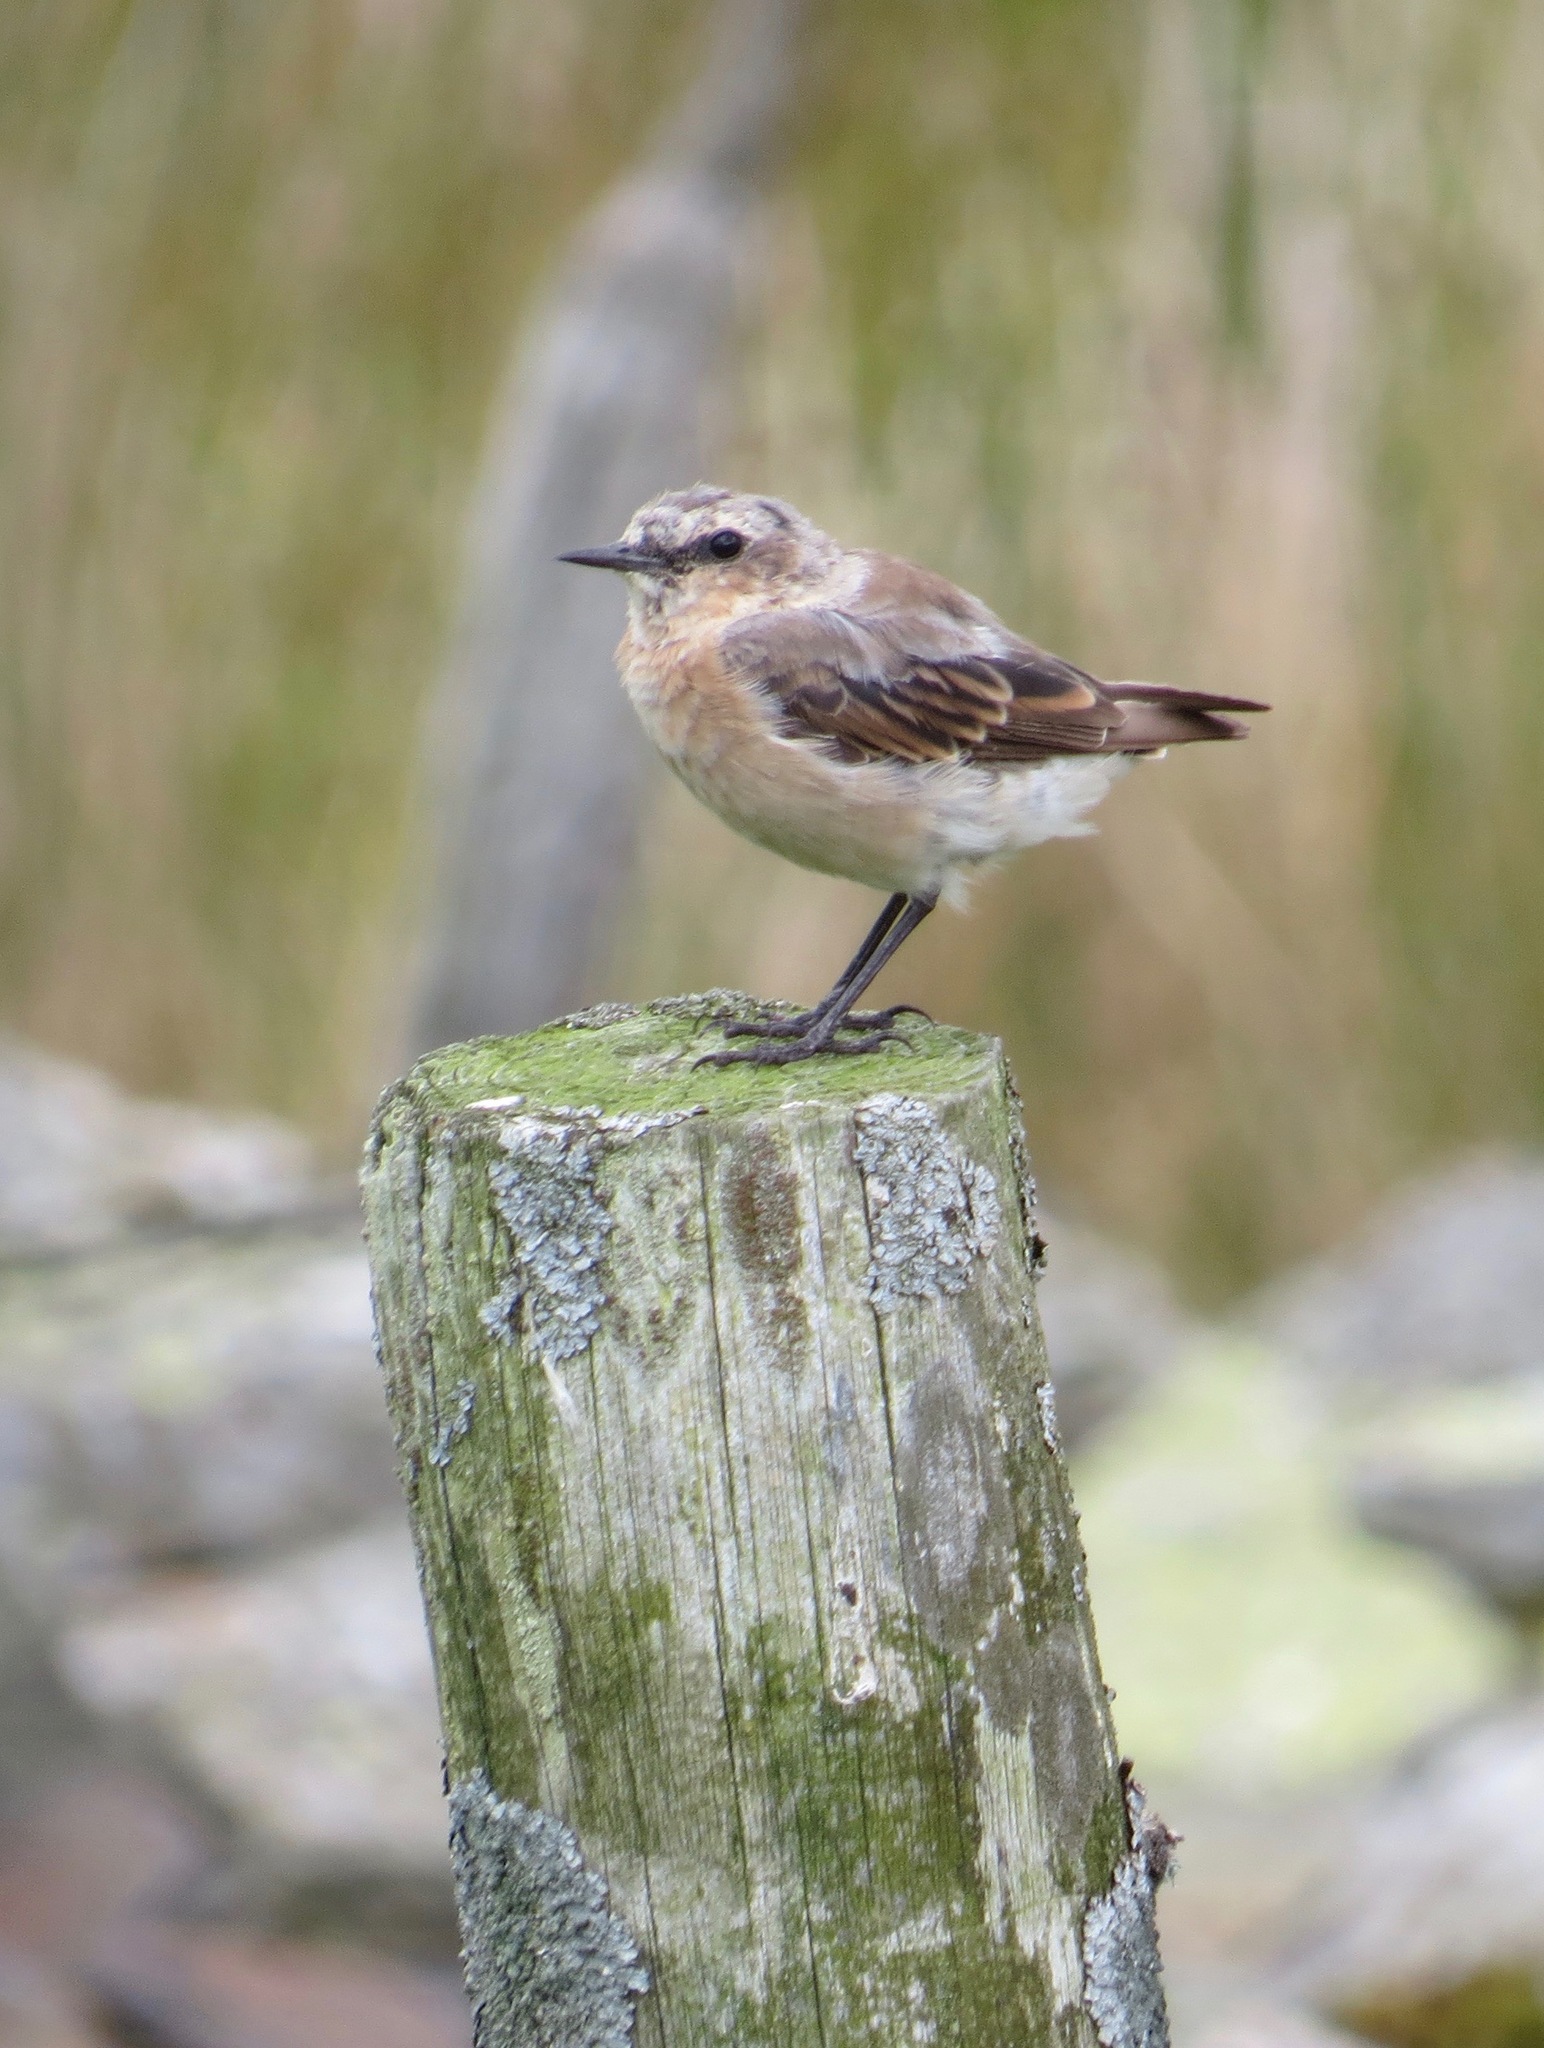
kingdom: Animalia
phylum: Chordata
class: Aves
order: Passeriformes
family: Muscicapidae
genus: Oenanthe
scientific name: Oenanthe oenanthe
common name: Northern wheatear
